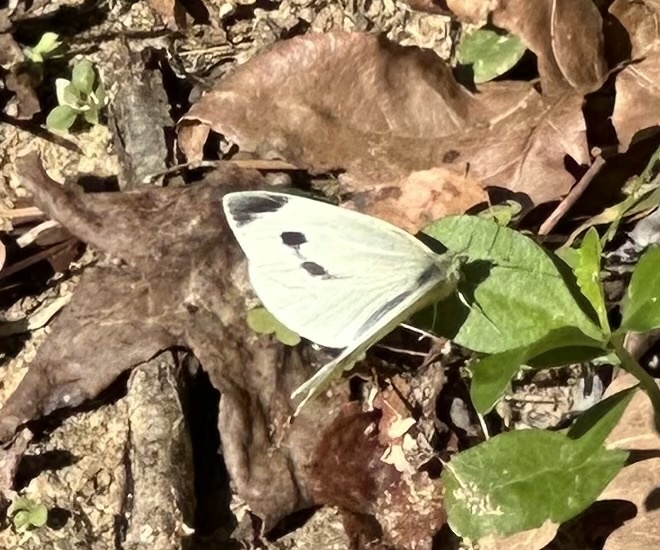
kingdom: Animalia
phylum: Arthropoda
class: Insecta
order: Lepidoptera
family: Pieridae
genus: Pieris
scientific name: Pieris rapae
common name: Small white
